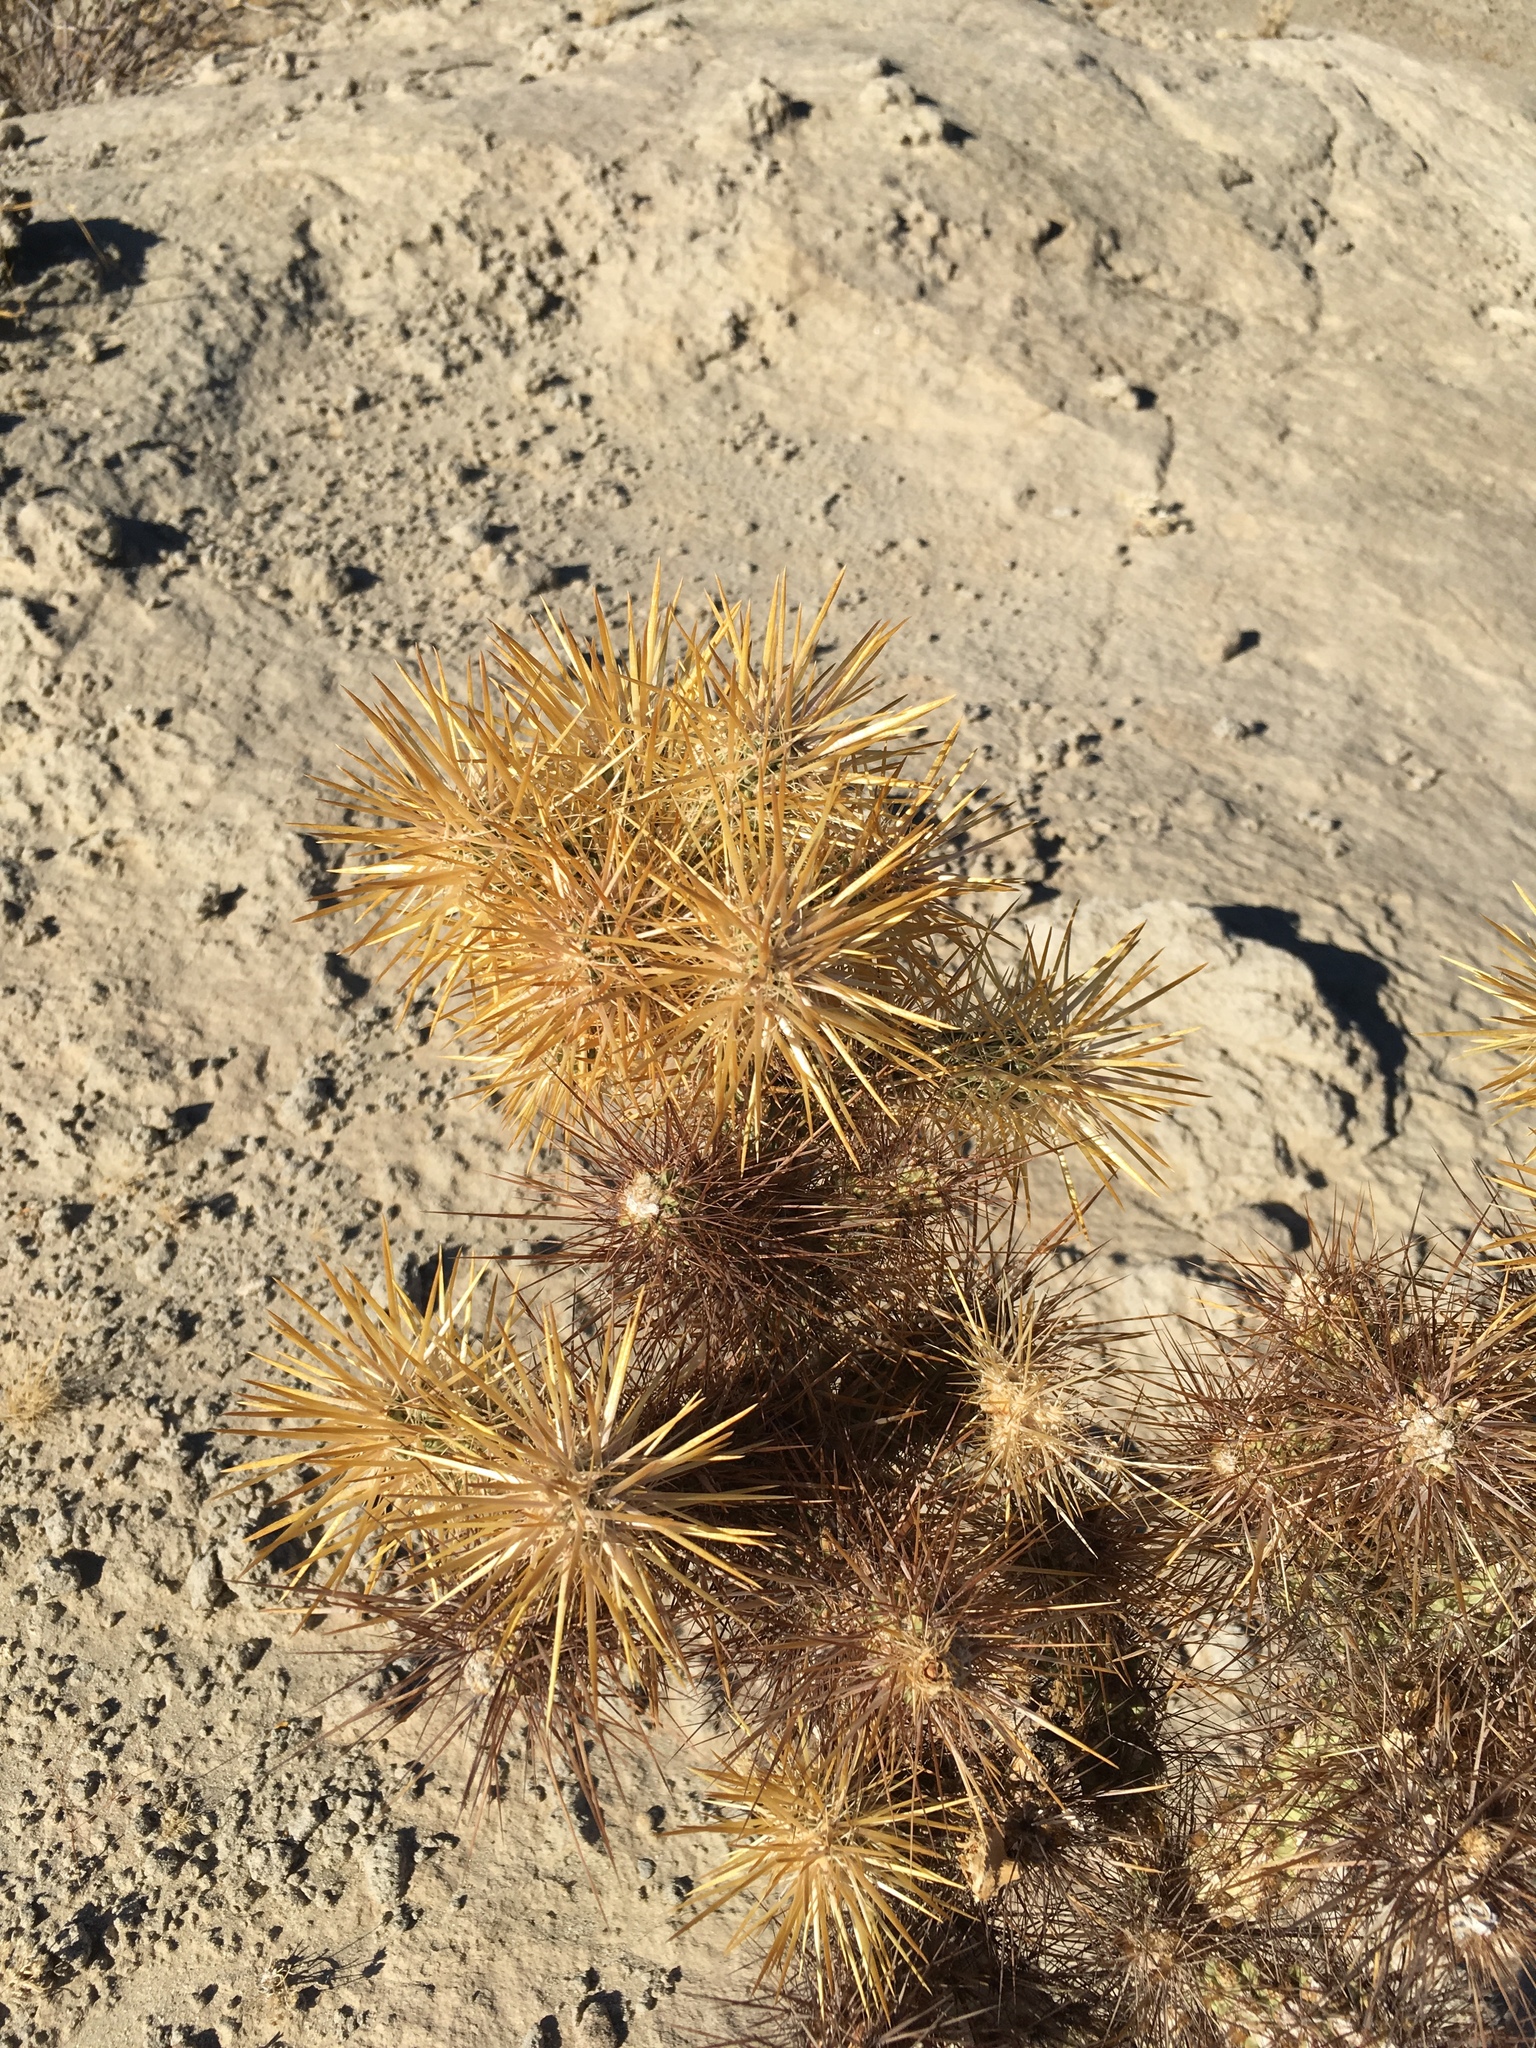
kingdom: Plantae
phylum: Tracheophyta
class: Magnoliopsida
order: Caryophyllales
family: Cactaceae
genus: Cylindropuntia
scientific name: Cylindropuntia echinocarpa
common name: Ground cholla
